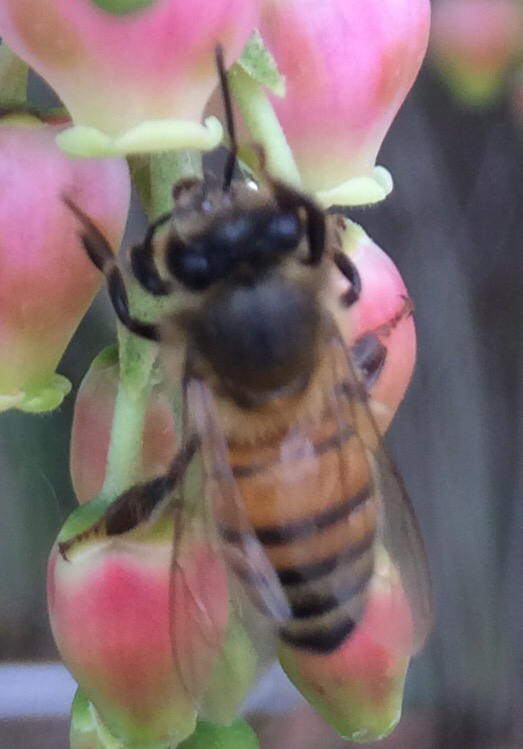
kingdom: Animalia
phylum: Arthropoda
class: Insecta
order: Hymenoptera
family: Apidae
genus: Apis
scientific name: Apis mellifera
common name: Honey bee
